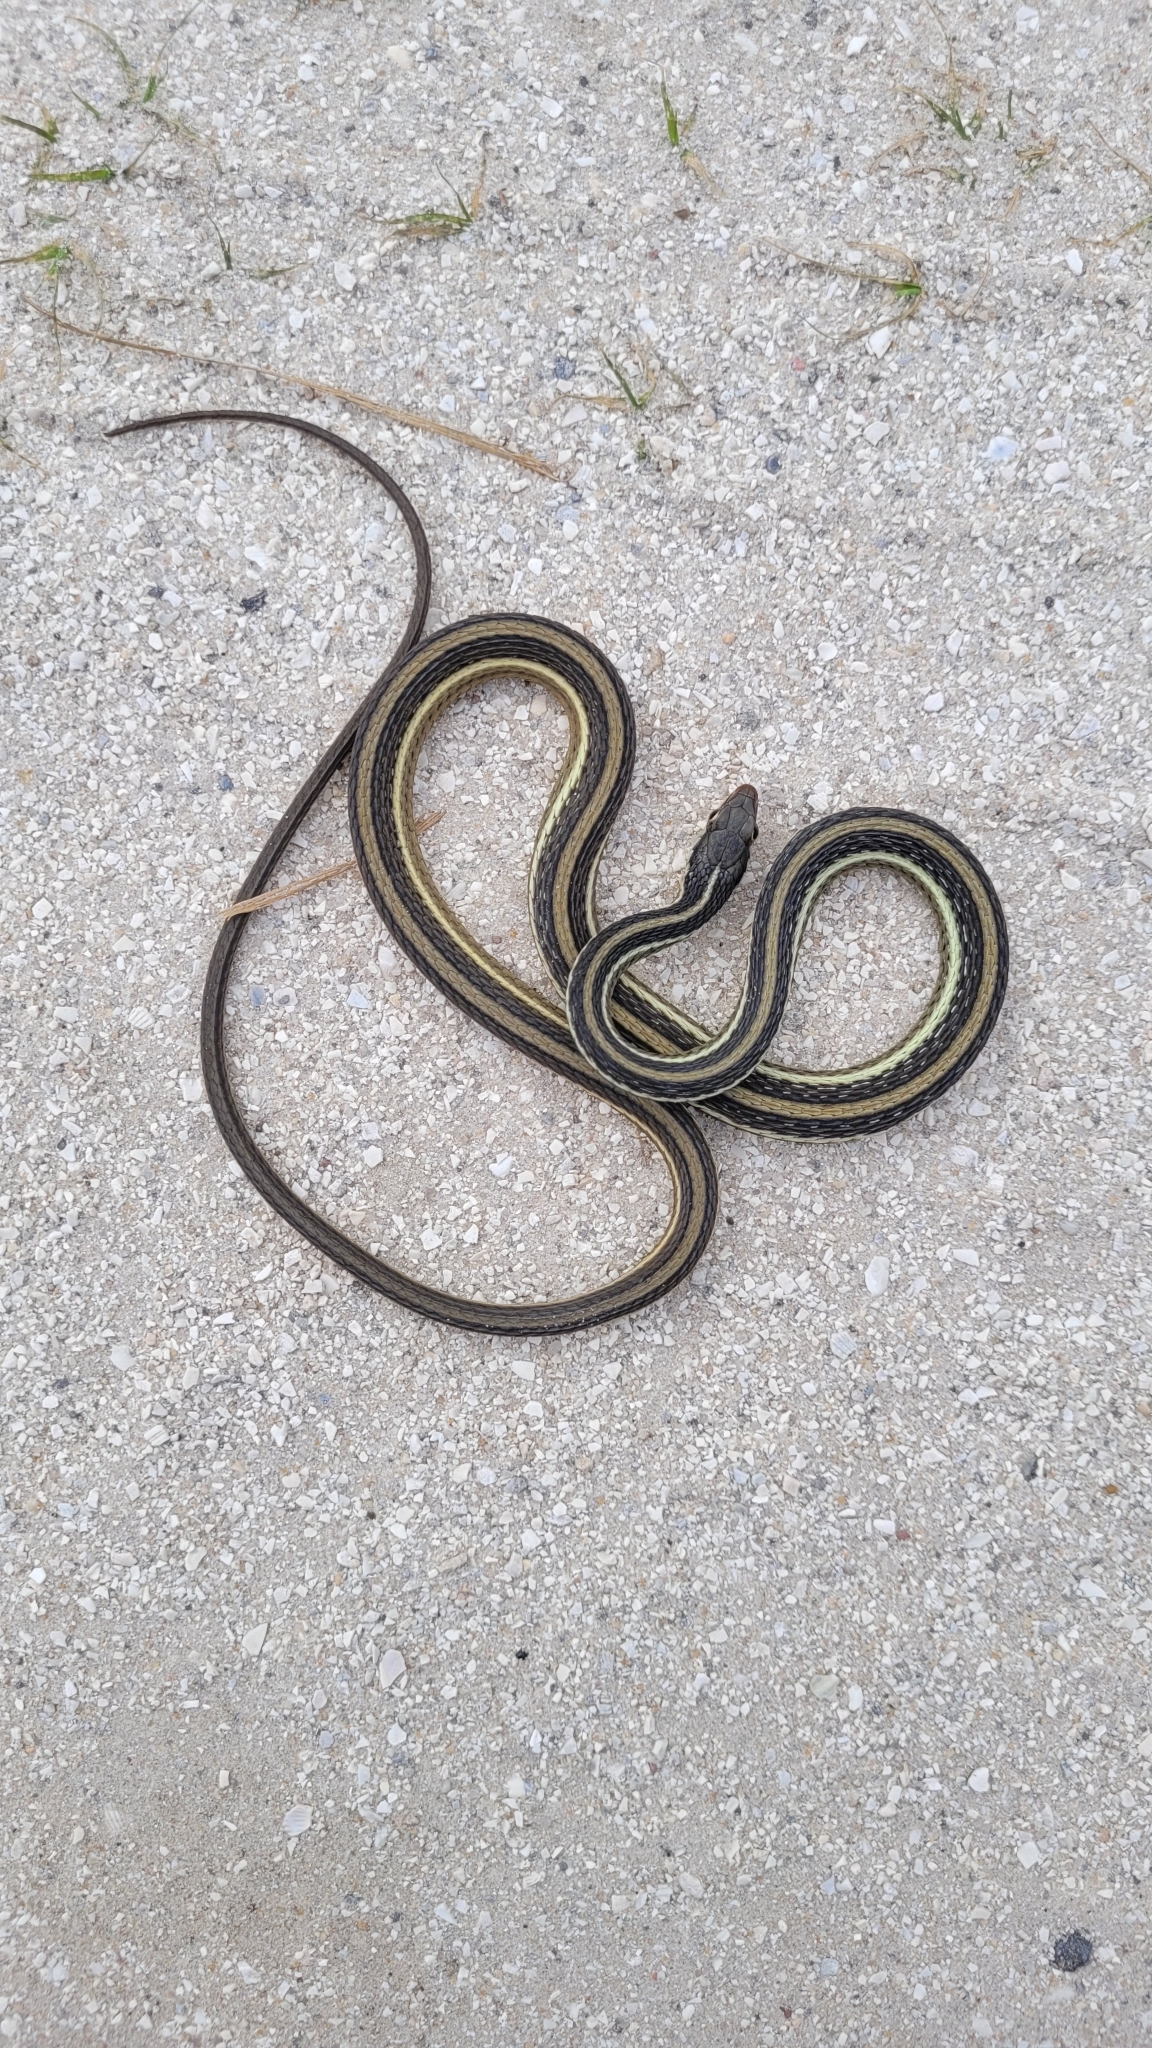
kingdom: Animalia
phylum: Chordata
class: Squamata
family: Colubridae
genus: Thamnophis
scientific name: Thamnophis saurita
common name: Eastern ribbonsnake
